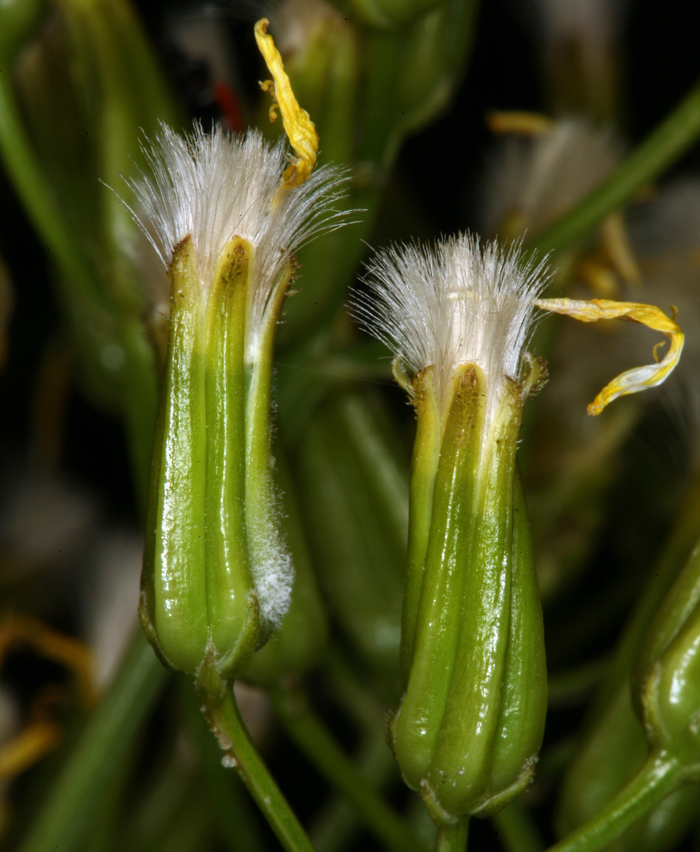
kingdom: Plantae
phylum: Tracheophyta
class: Magnoliopsida
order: Asterales
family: Asteraceae
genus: Crepis
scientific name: Crepis acuminata
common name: Longleaf hawk's-beard
